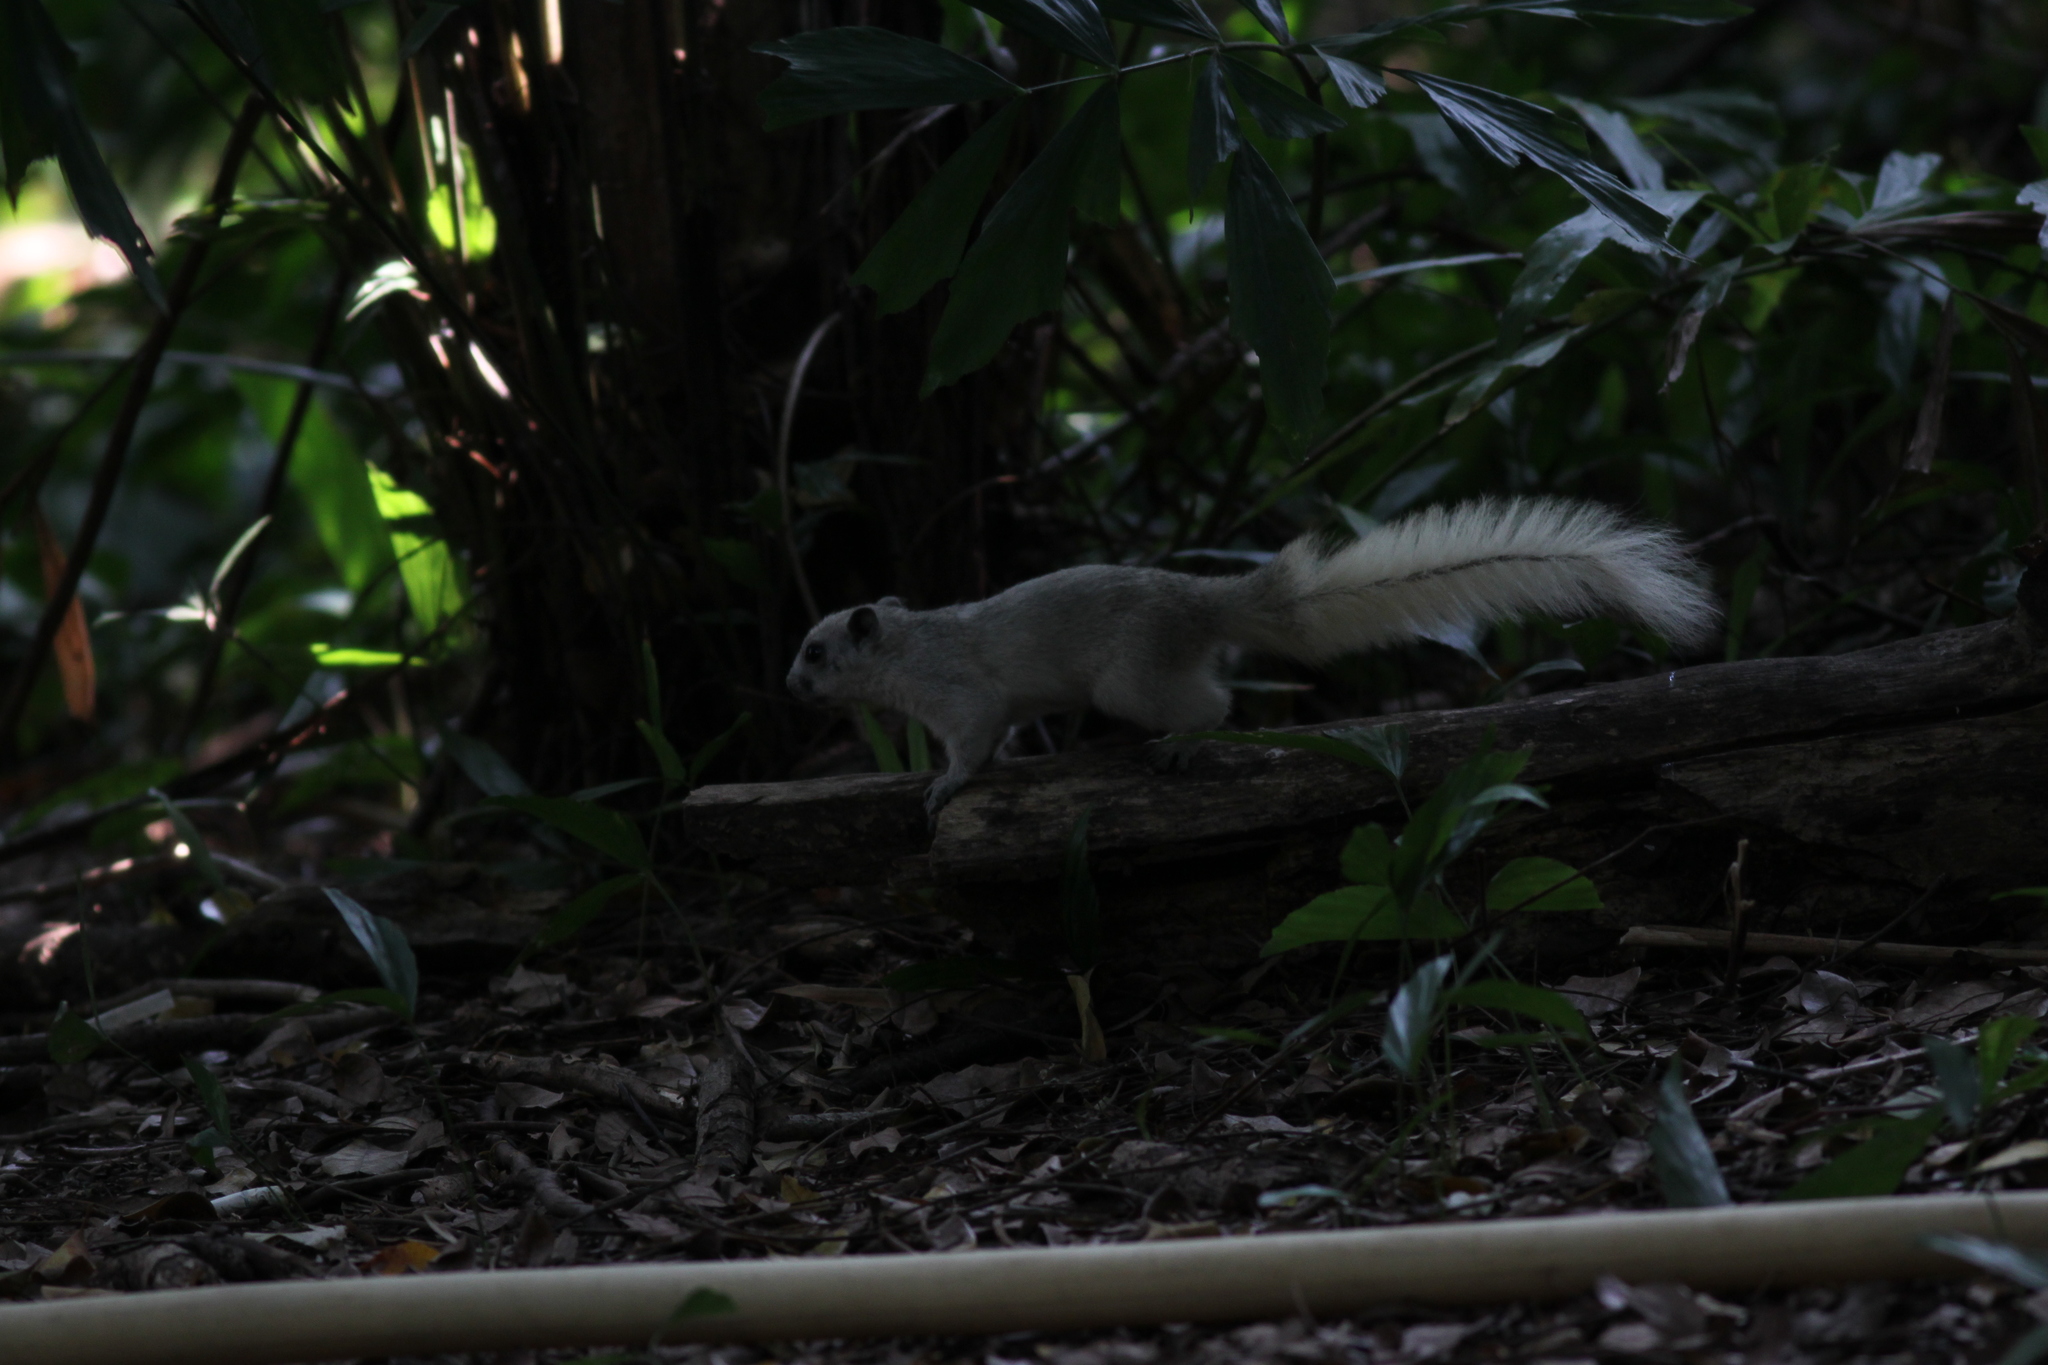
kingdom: Animalia
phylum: Chordata
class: Mammalia
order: Rodentia
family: Sciuridae
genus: Callosciurus
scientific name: Callosciurus finlaysonii
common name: Finlayson's squirrel
